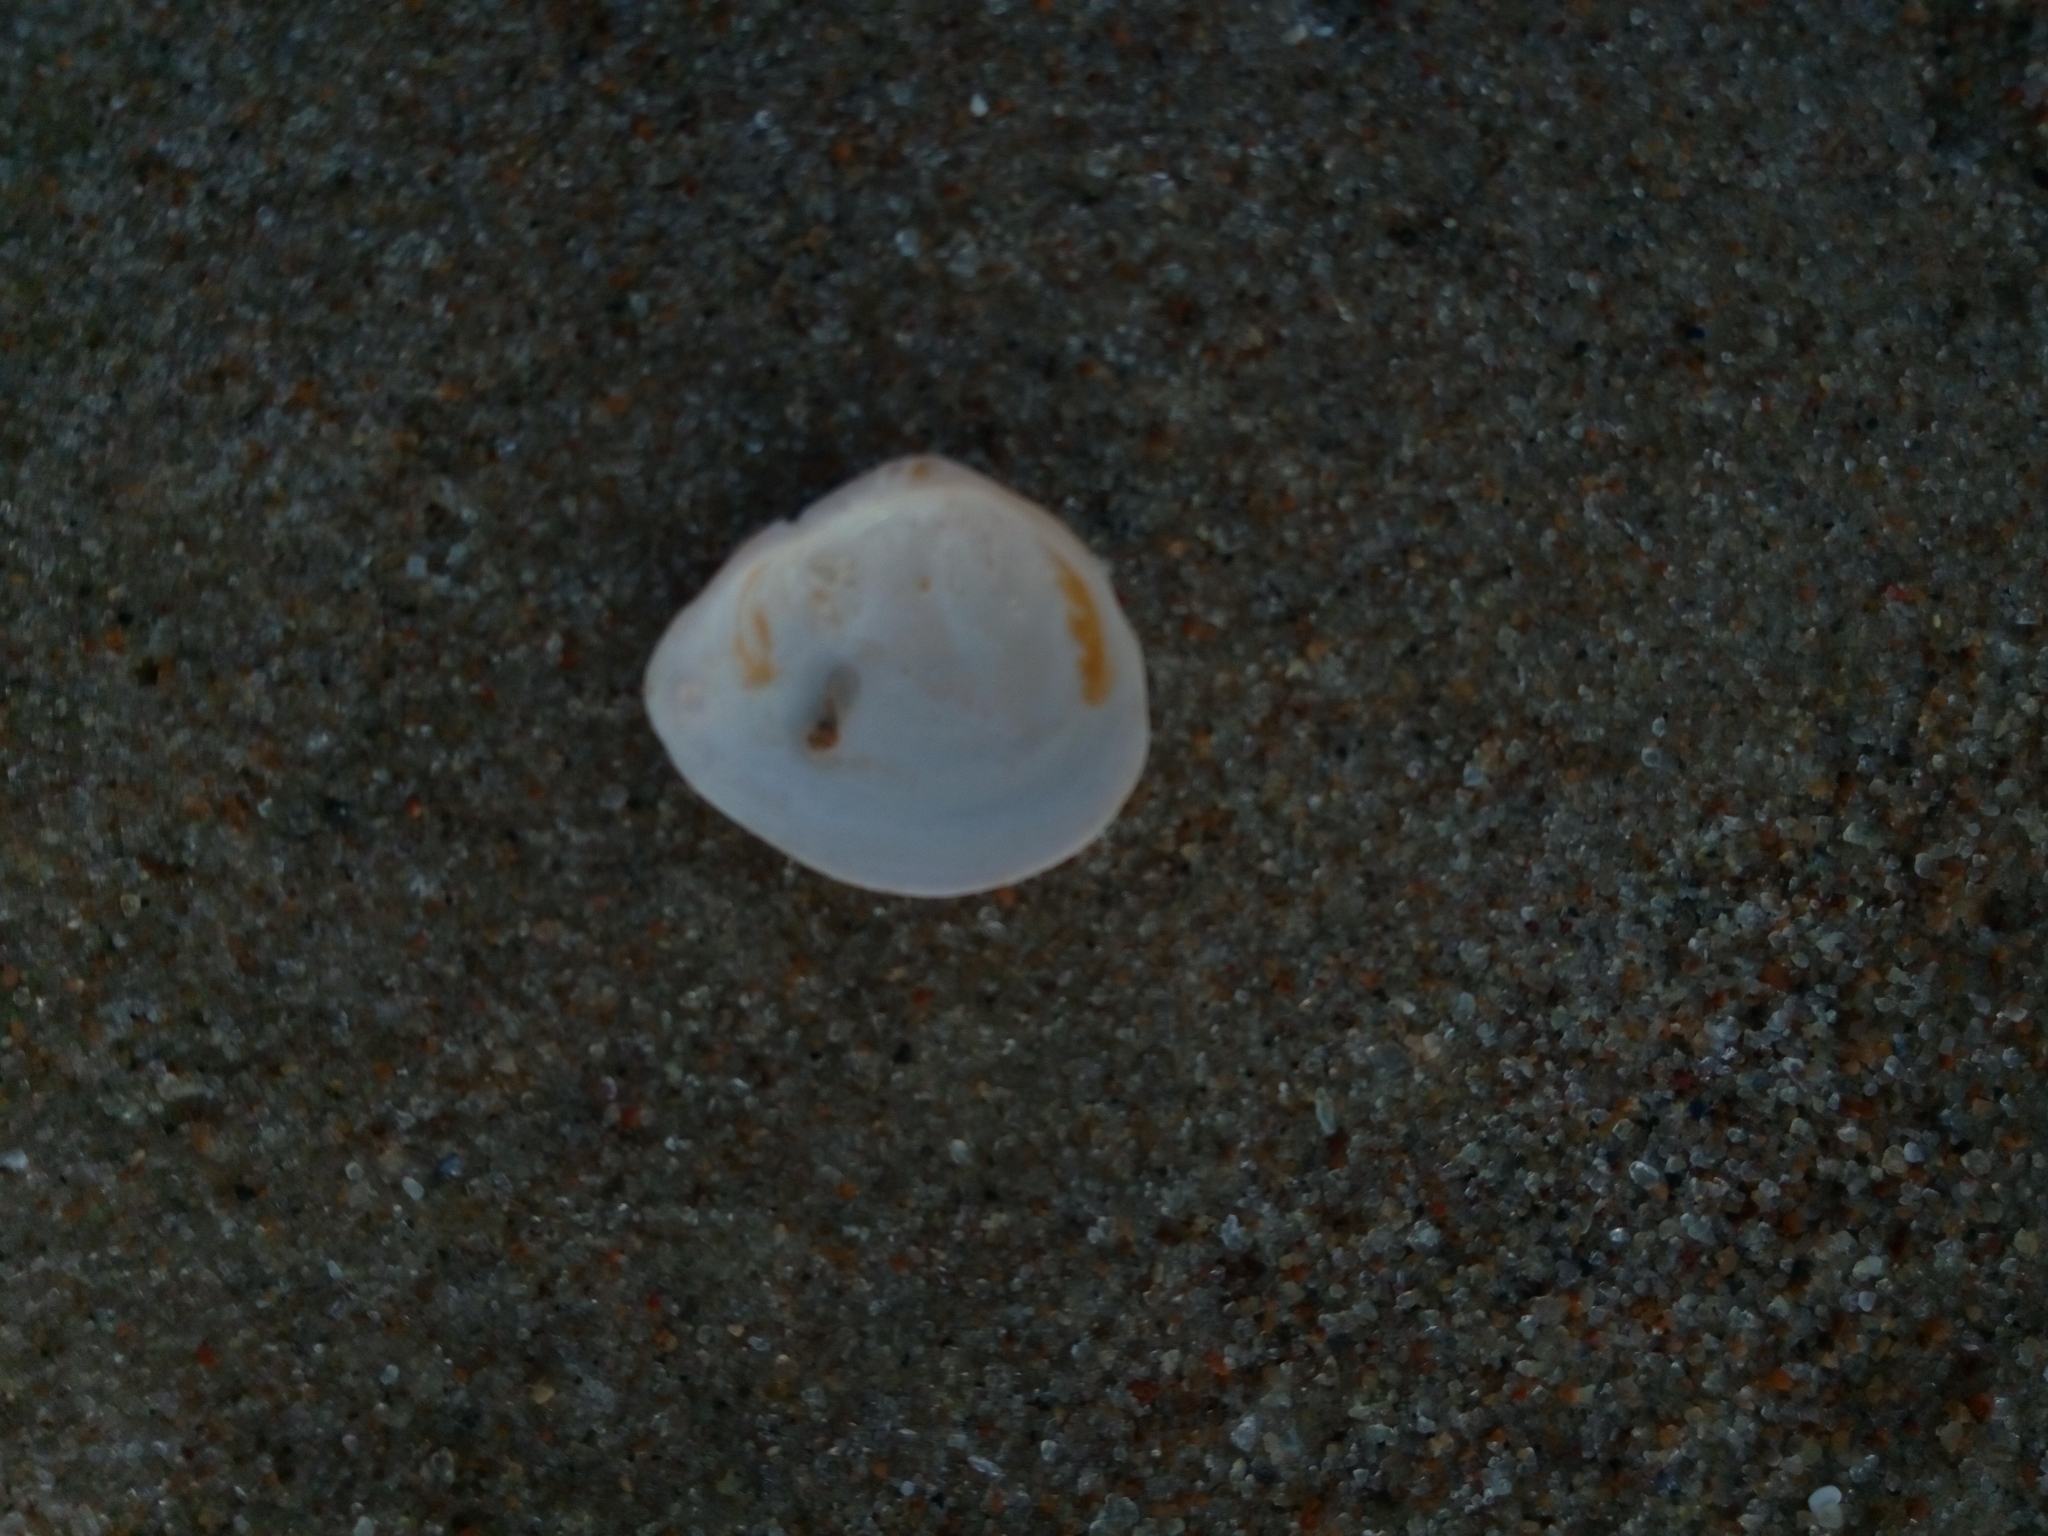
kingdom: Animalia
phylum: Mollusca
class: Bivalvia
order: Cardiida
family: Tellinidae
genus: Macoma
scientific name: Macoma balthica
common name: Baltic tellin
